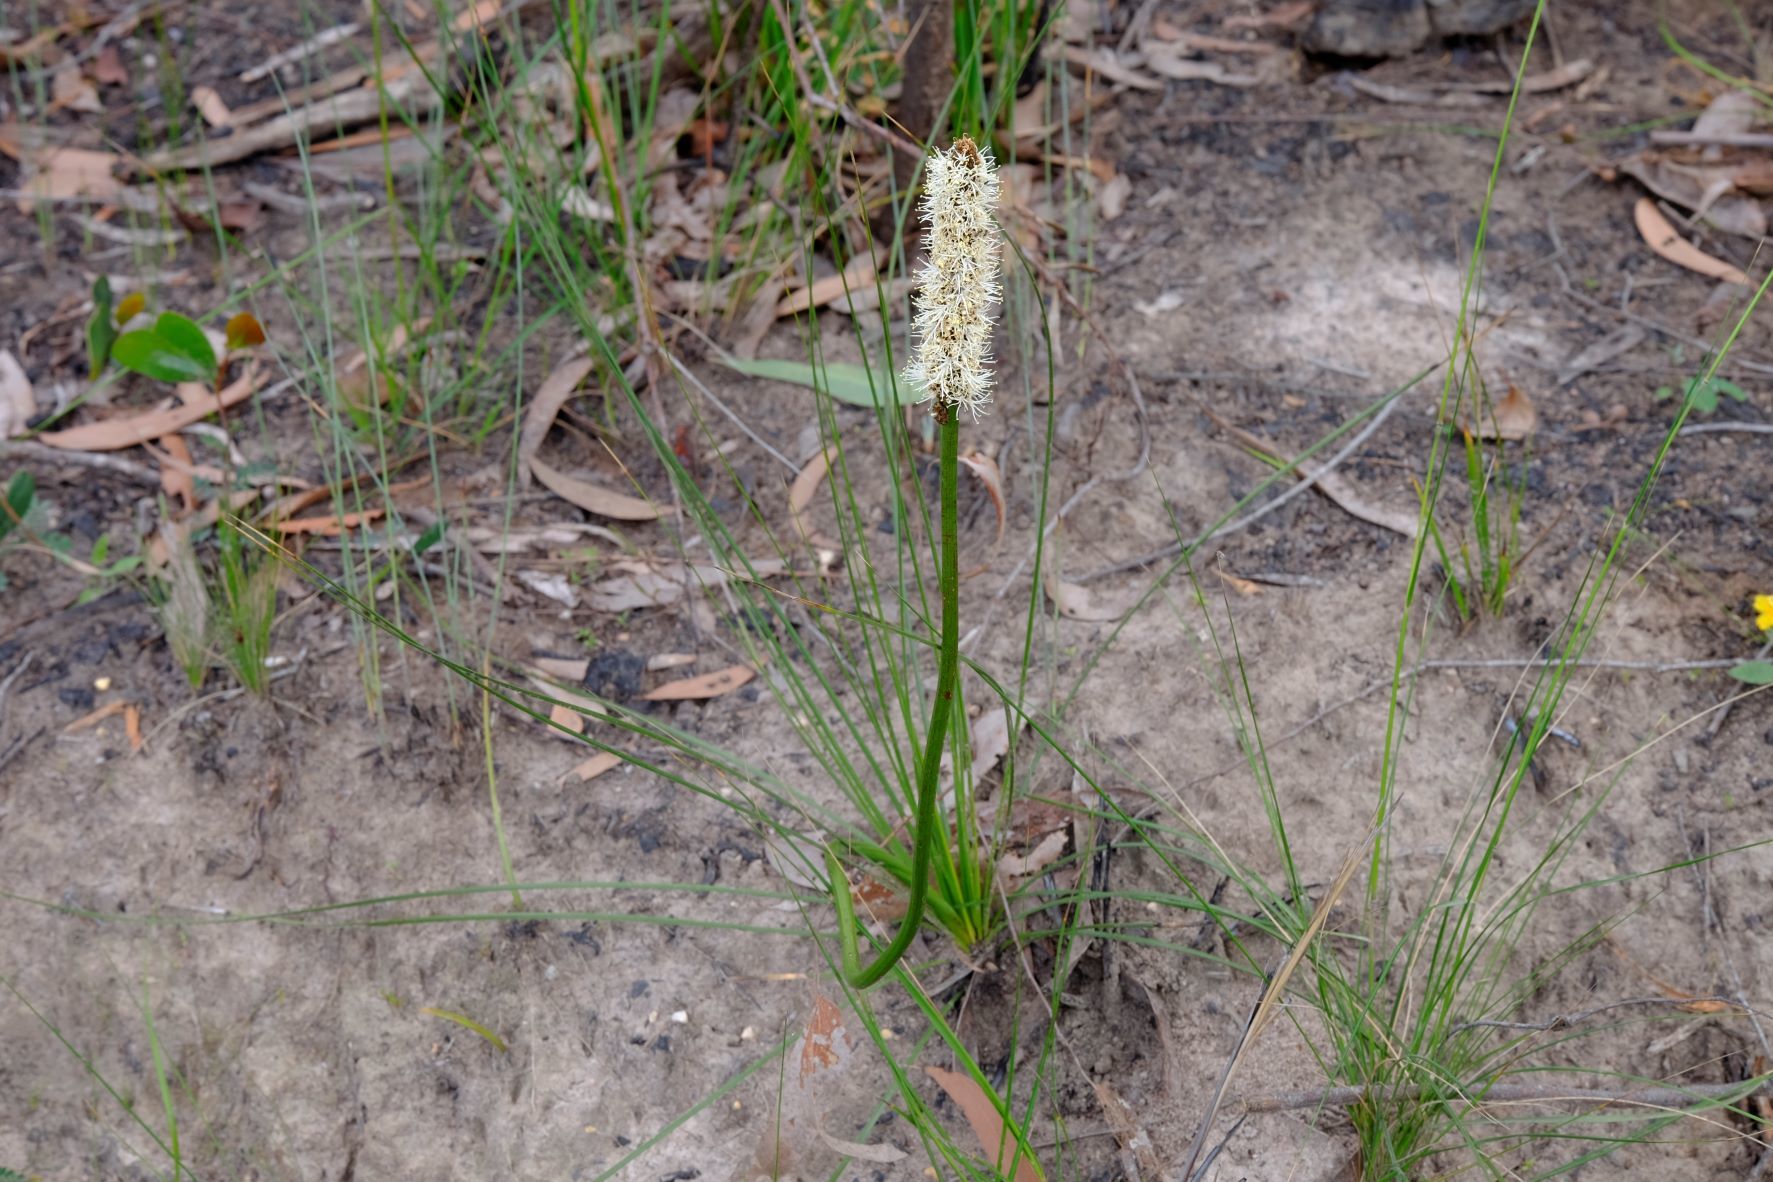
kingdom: Plantae
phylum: Tracheophyta
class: Liliopsida
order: Asparagales
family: Asphodelaceae
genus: Xanthorrhoea
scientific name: Xanthorrhoea minor
